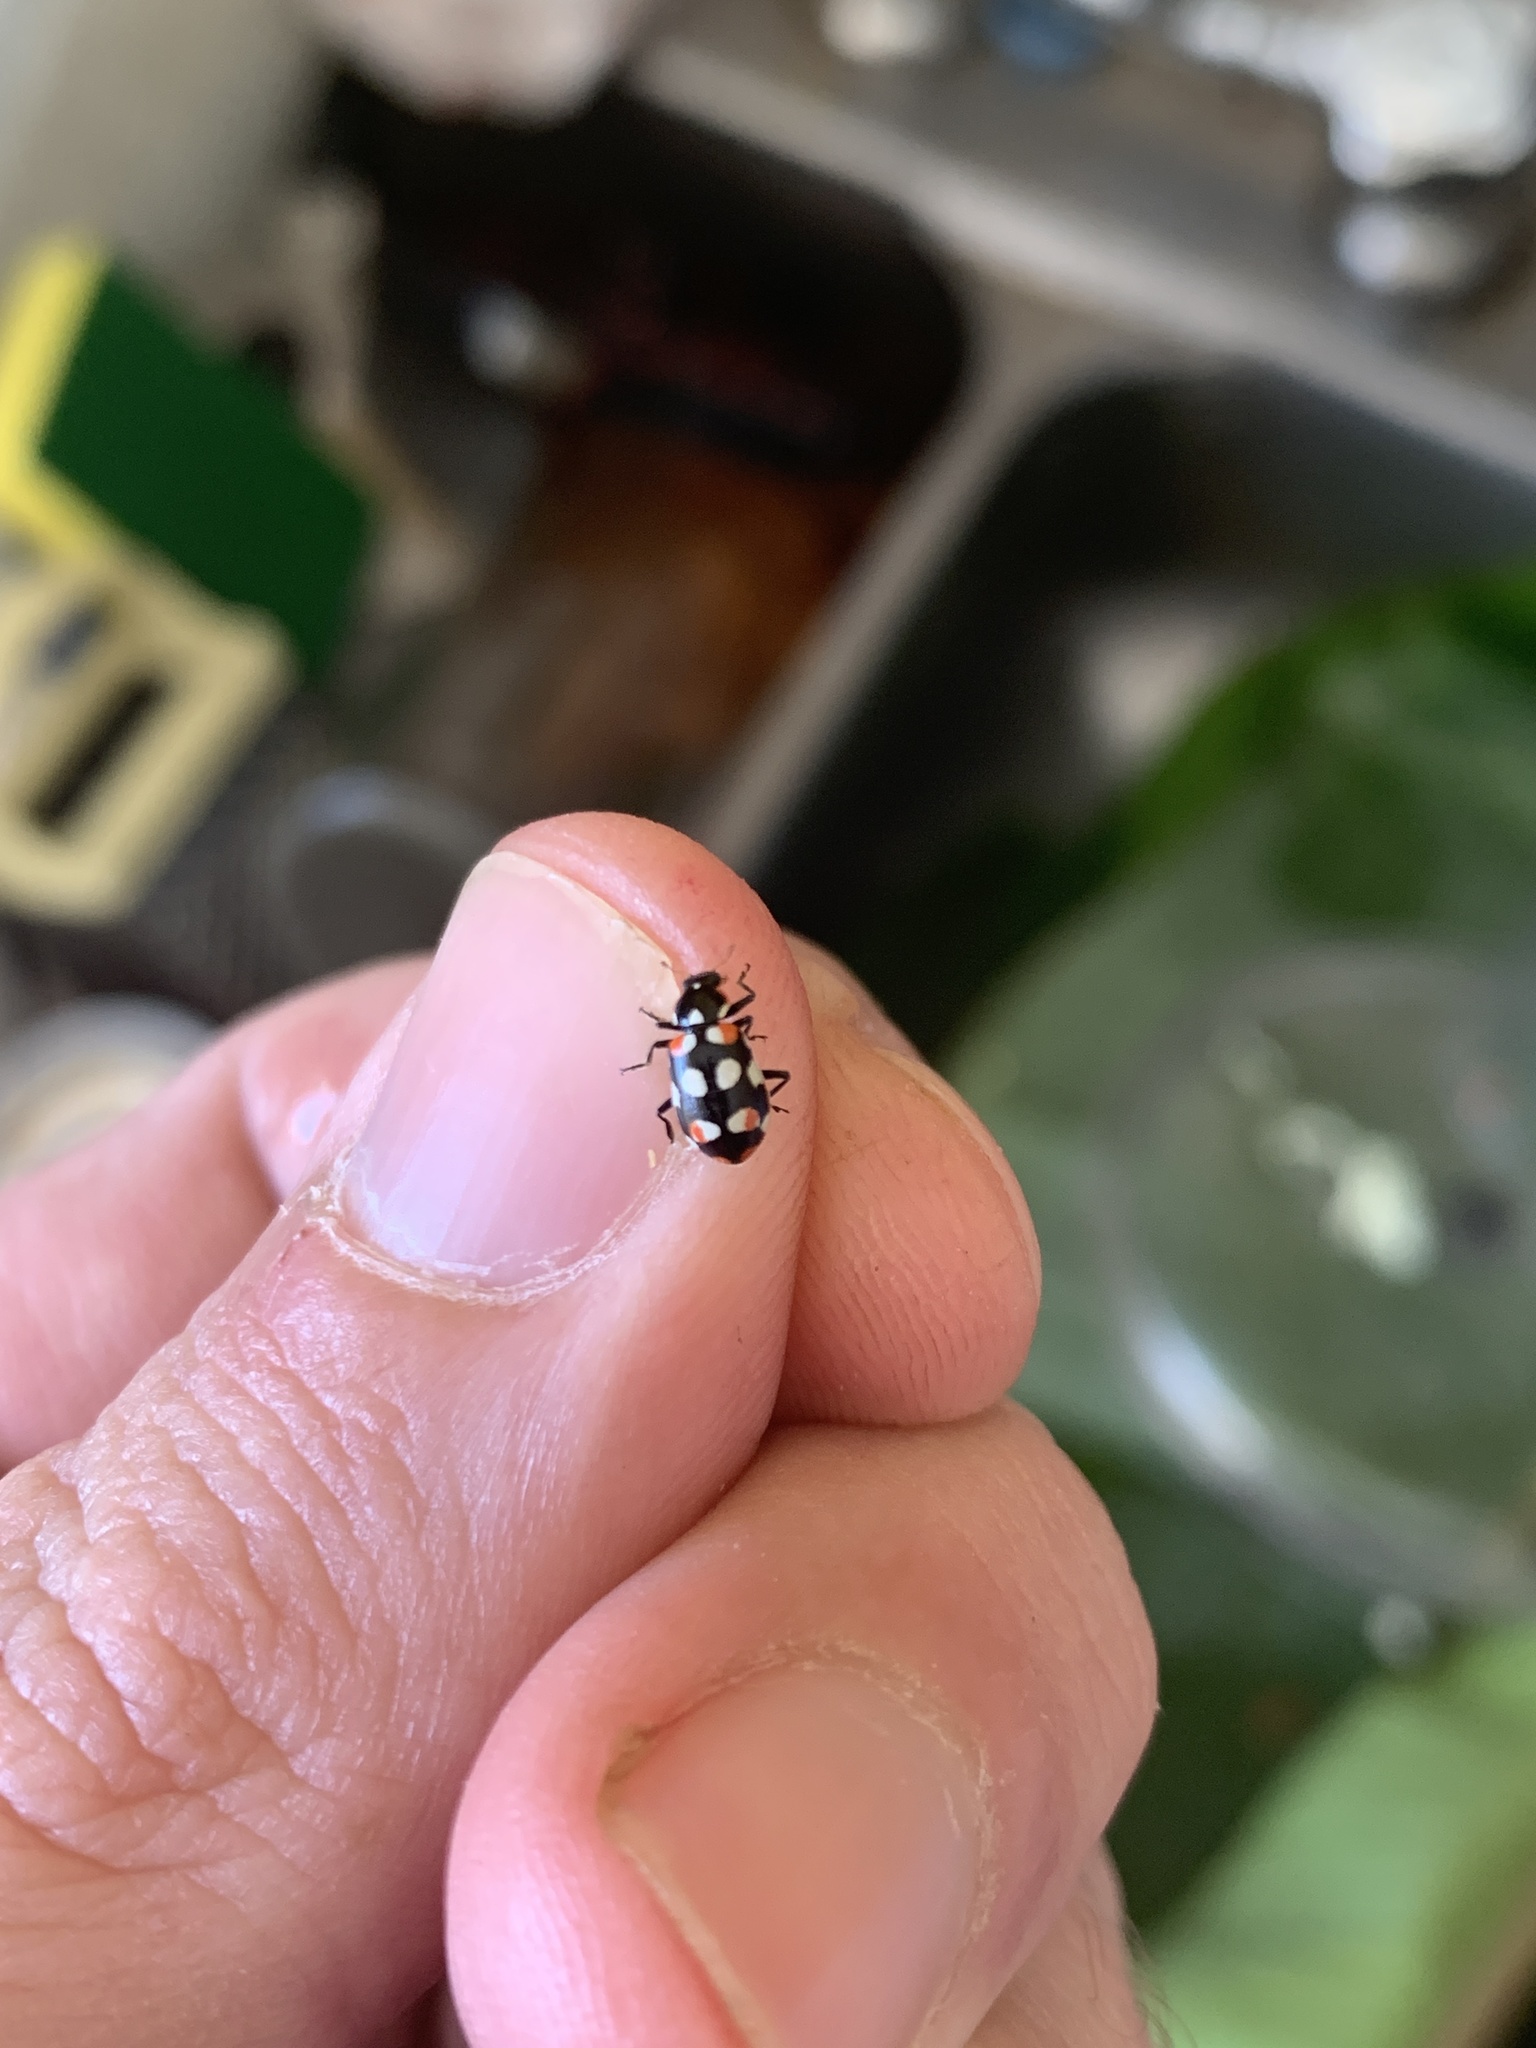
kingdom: Animalia
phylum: Arthropoda
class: Insecta
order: Coleoptera
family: Coccinellidae
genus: Eriopis
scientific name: Eriopis connexa
